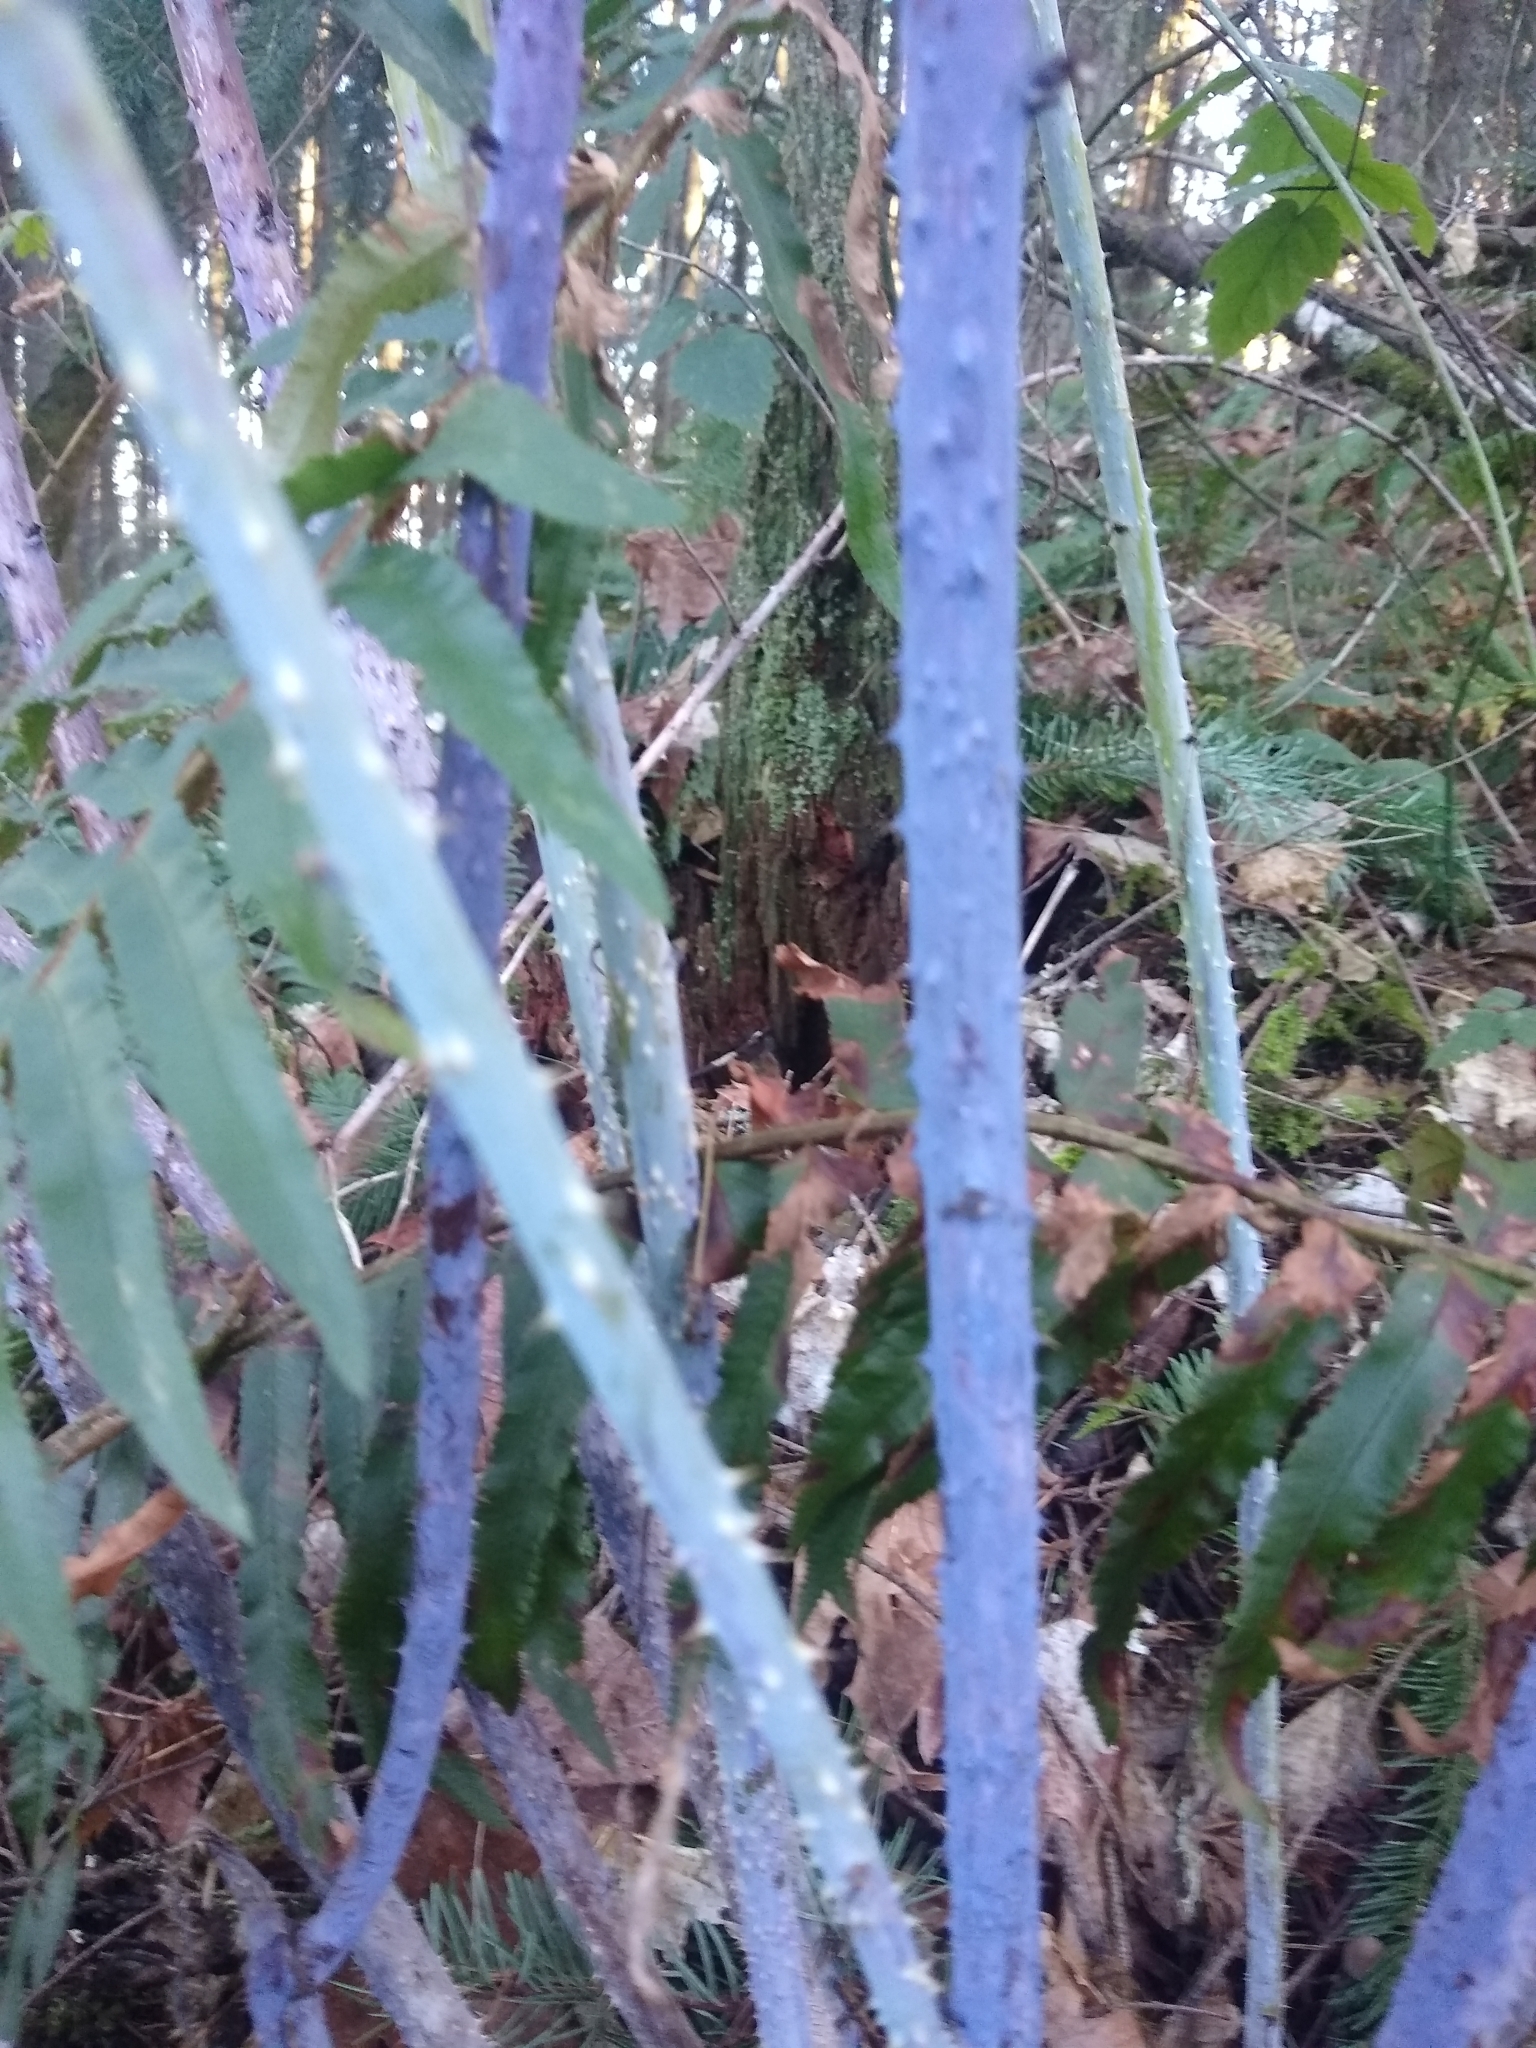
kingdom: Plantae
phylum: Tracheophyta
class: Magnoliopsida
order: Rosales
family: Rosaceae
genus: Rubus
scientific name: Rubus leucodermis
